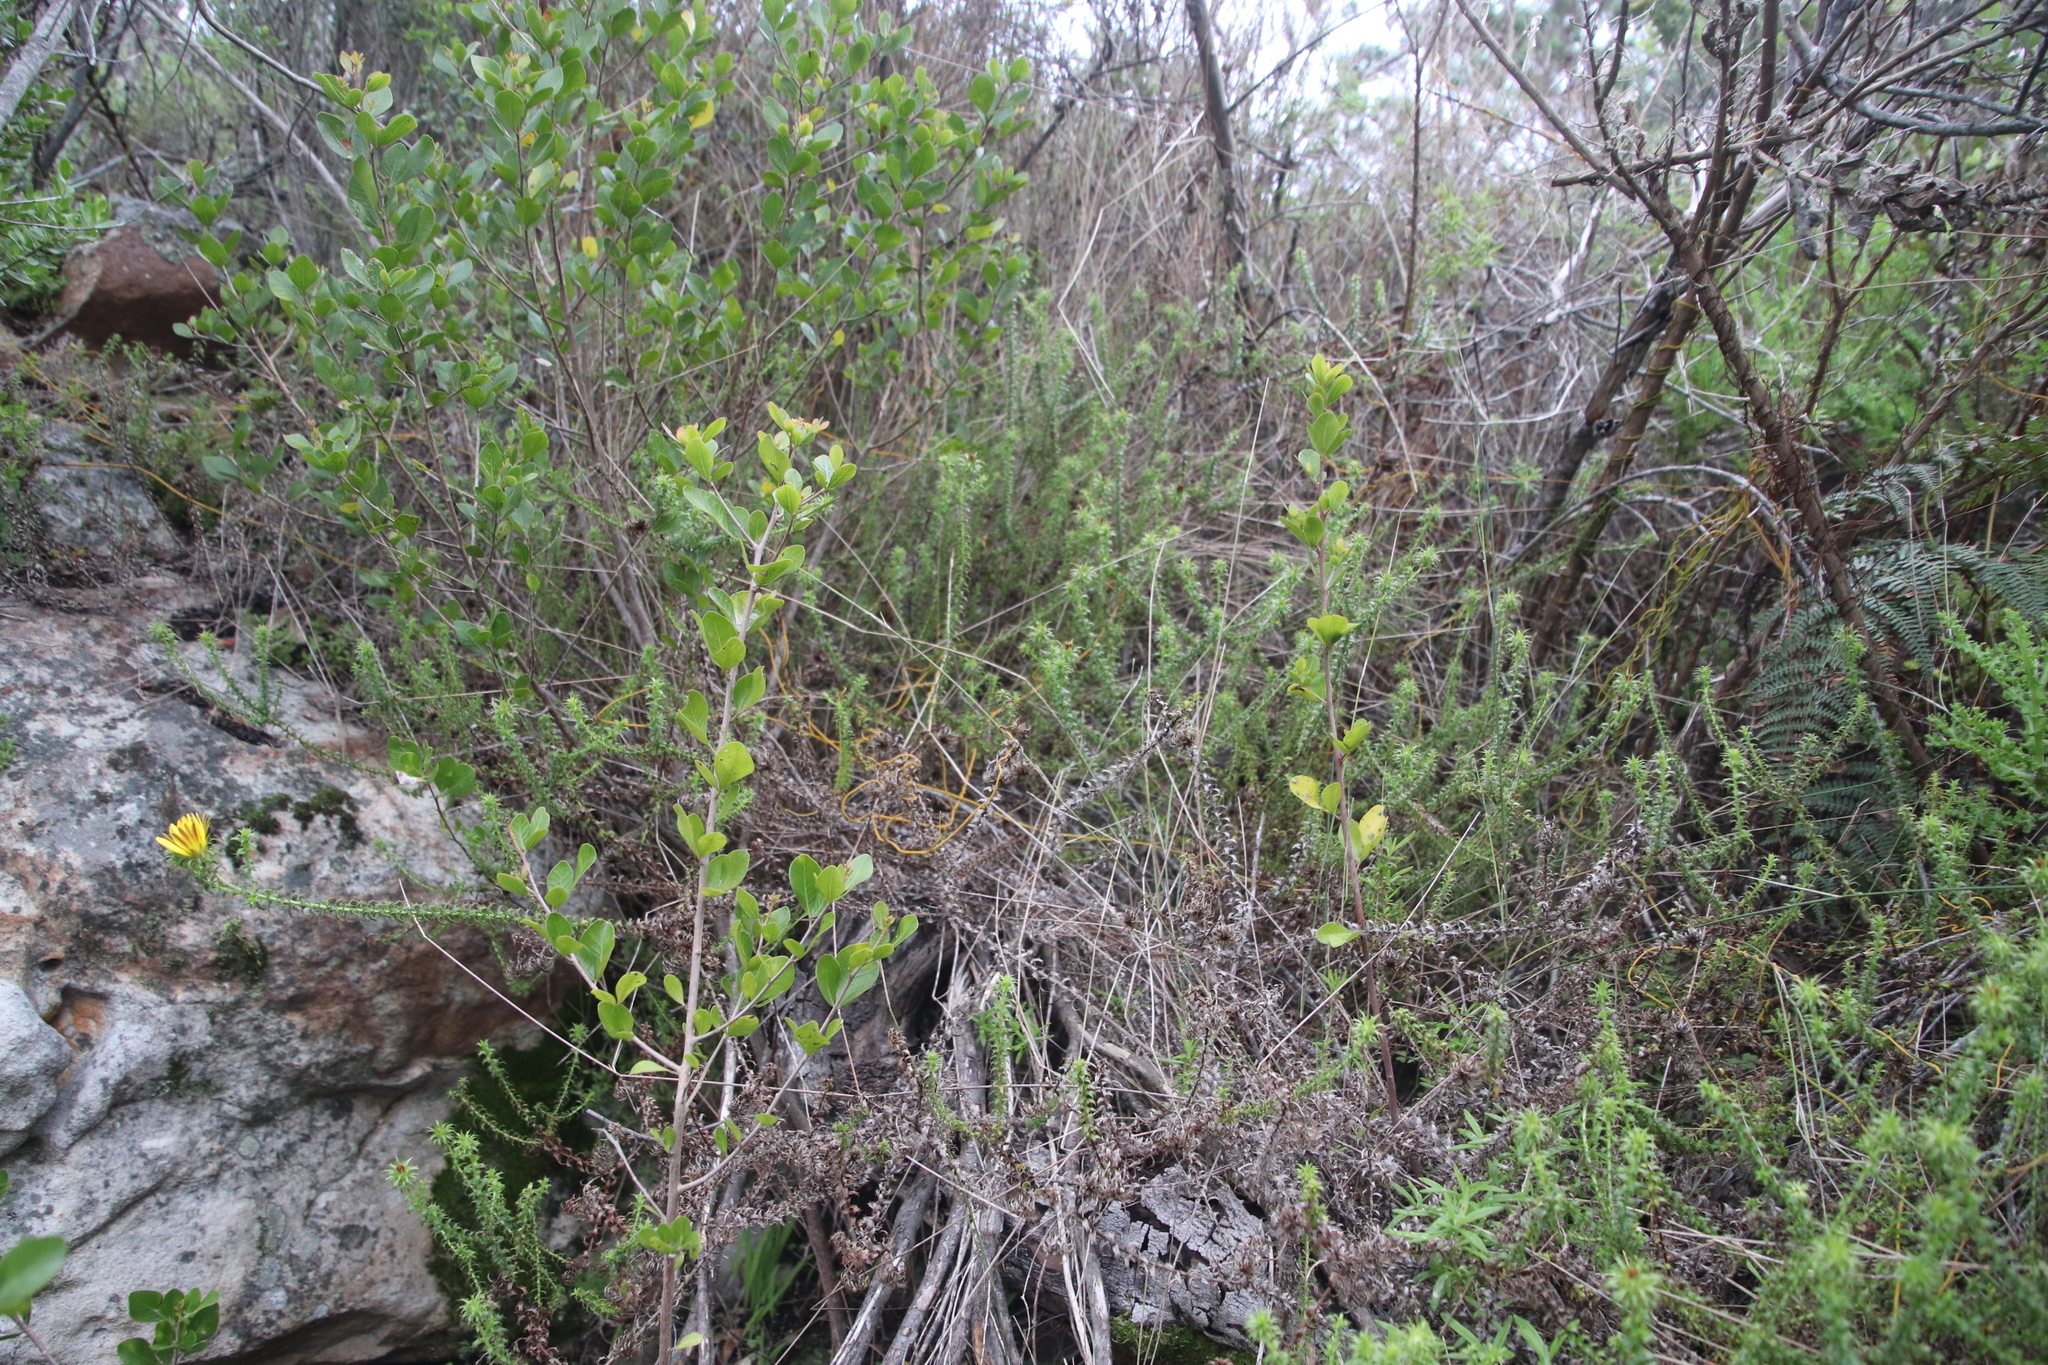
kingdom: Plantae
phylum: Tracheophyta
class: Magnoliopsida
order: Asterales
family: Asteraceae
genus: Cullumia
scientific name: Cullumia setosa
